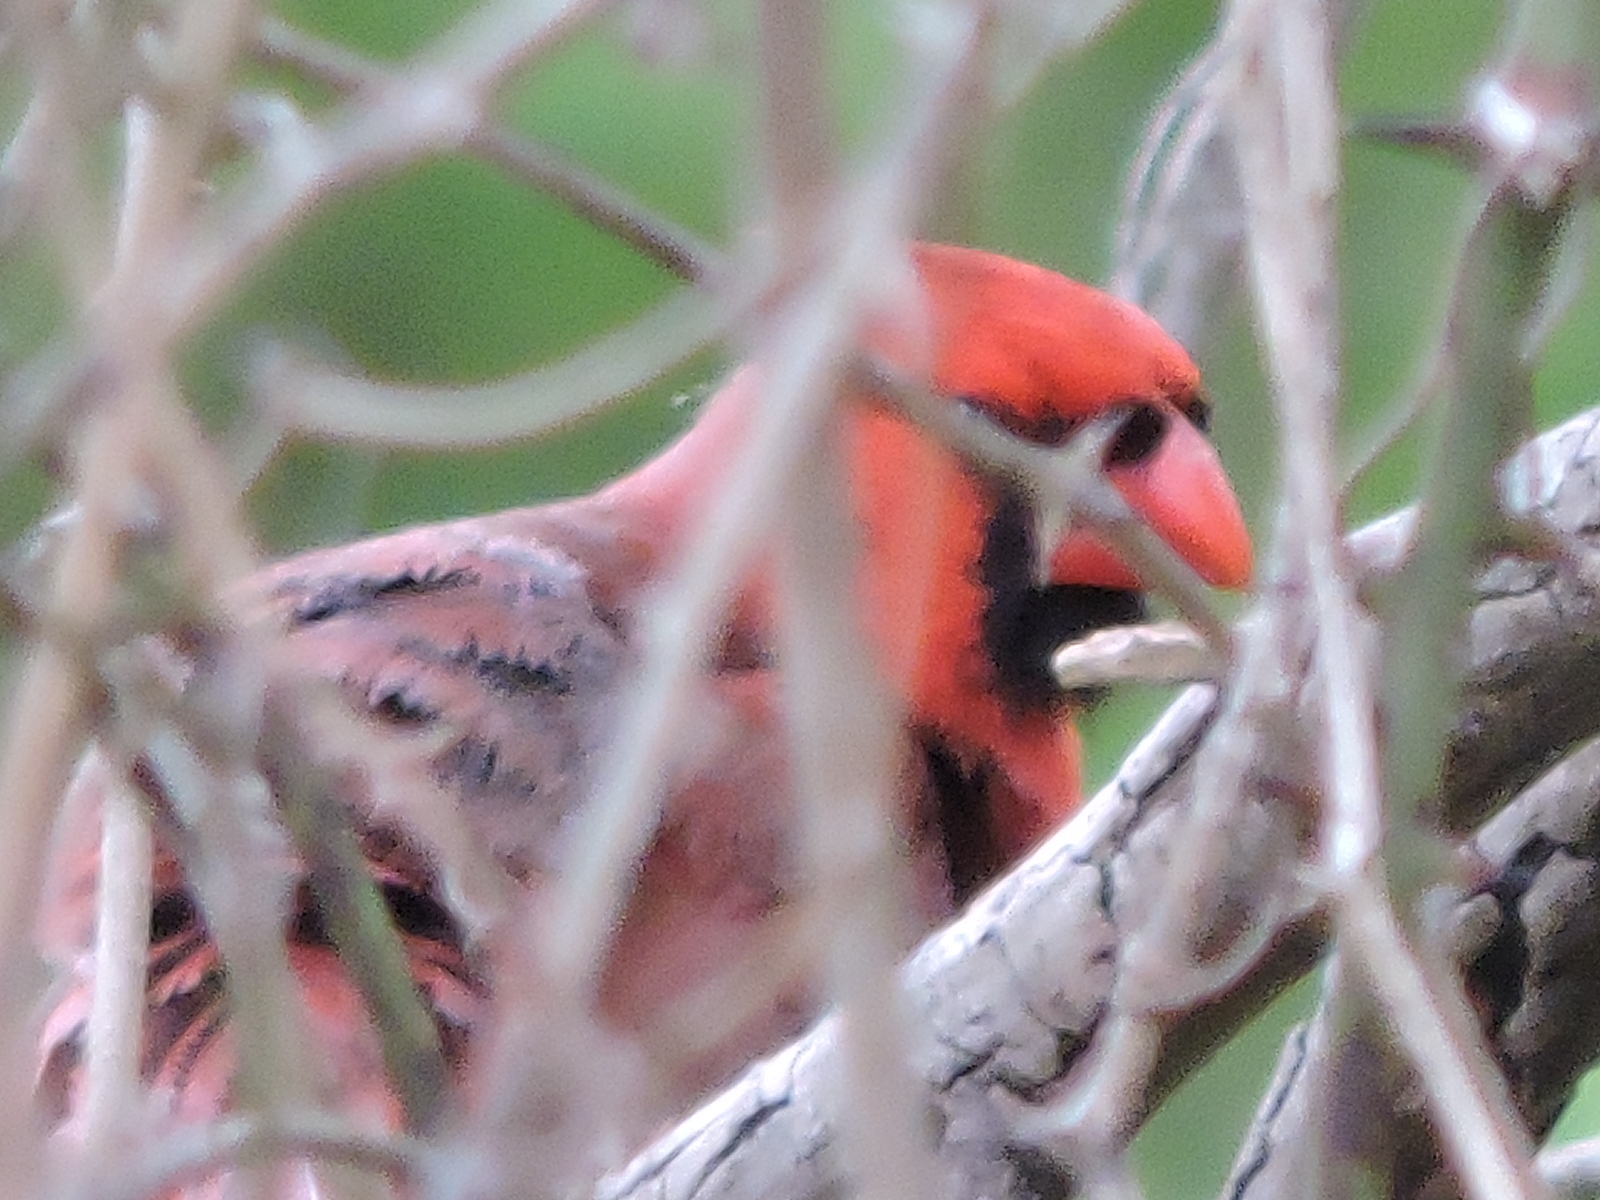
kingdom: Animalia
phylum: Chordata
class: Aves
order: Passeriformes
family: Cardinalidae
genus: Cardinalis
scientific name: Cardinalis cardinalis
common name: Northern cardinal
